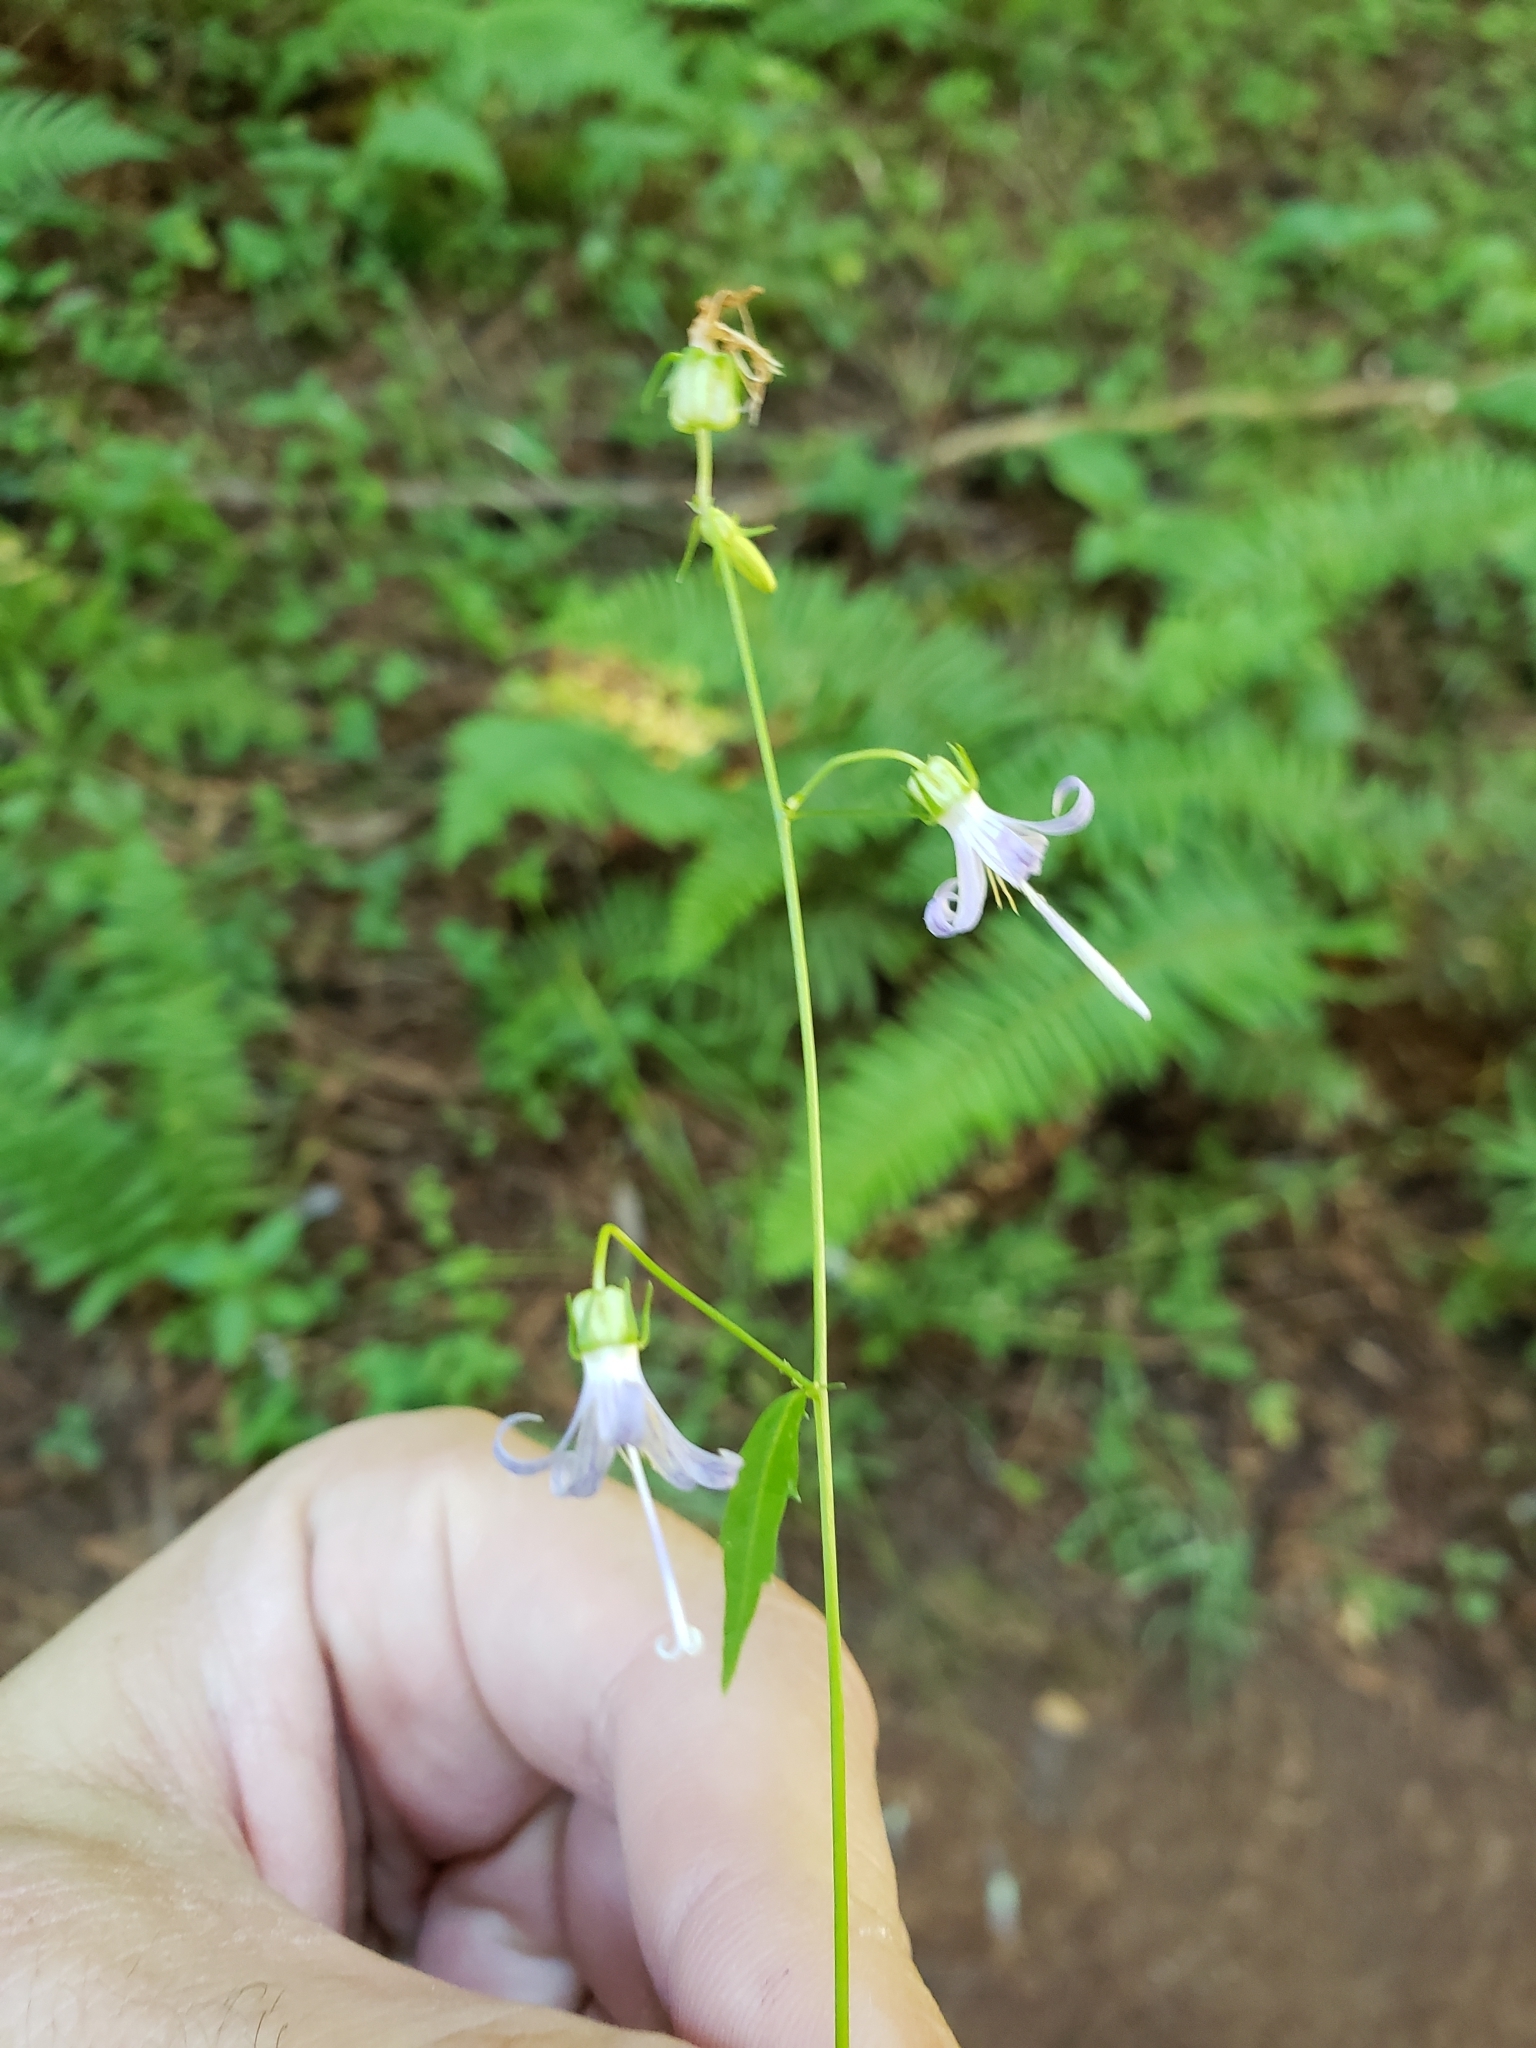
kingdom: Plantae
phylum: Tracheophyta
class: Magnoliopsida
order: Asterales
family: Campanulaceae
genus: Smithiastrum
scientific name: Smithiastrum prenanthoides
